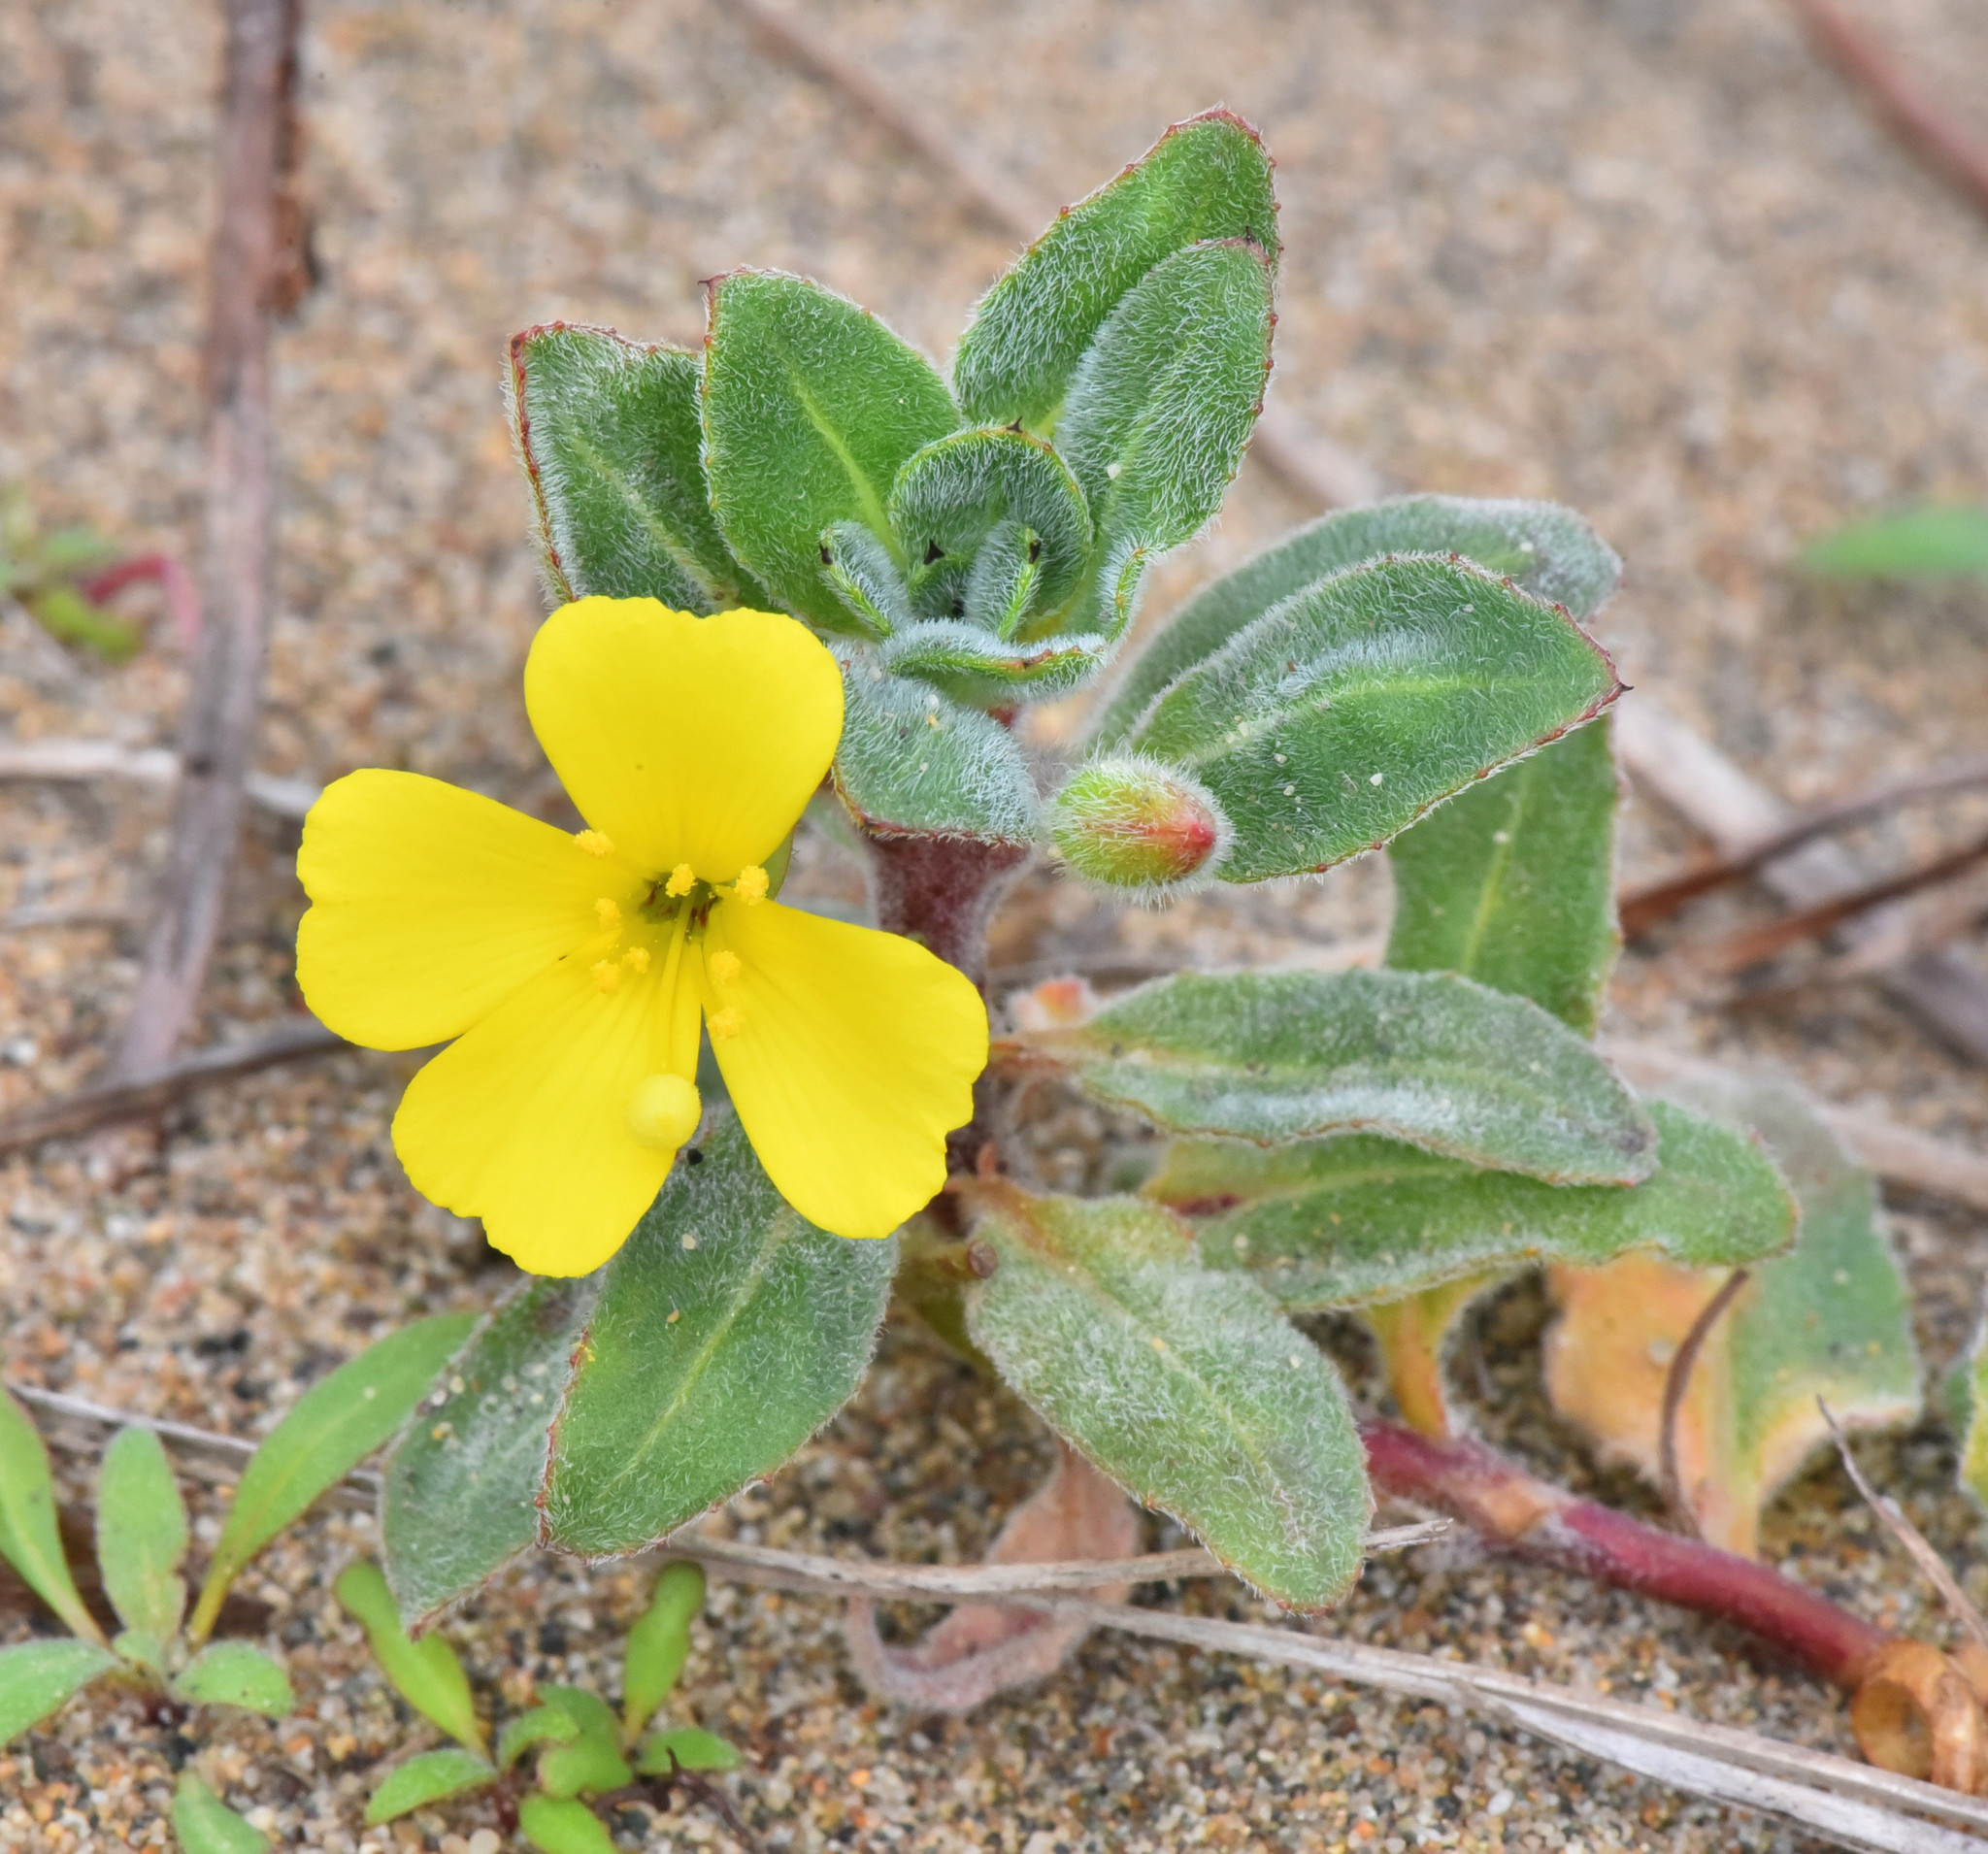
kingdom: Plantae
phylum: Tracheophyta
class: Magnoliopsida
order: Myrtales
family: Onagraceae
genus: Camissoniopsis
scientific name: Camissoniopsis cheiranthifolia
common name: Beach suncup
